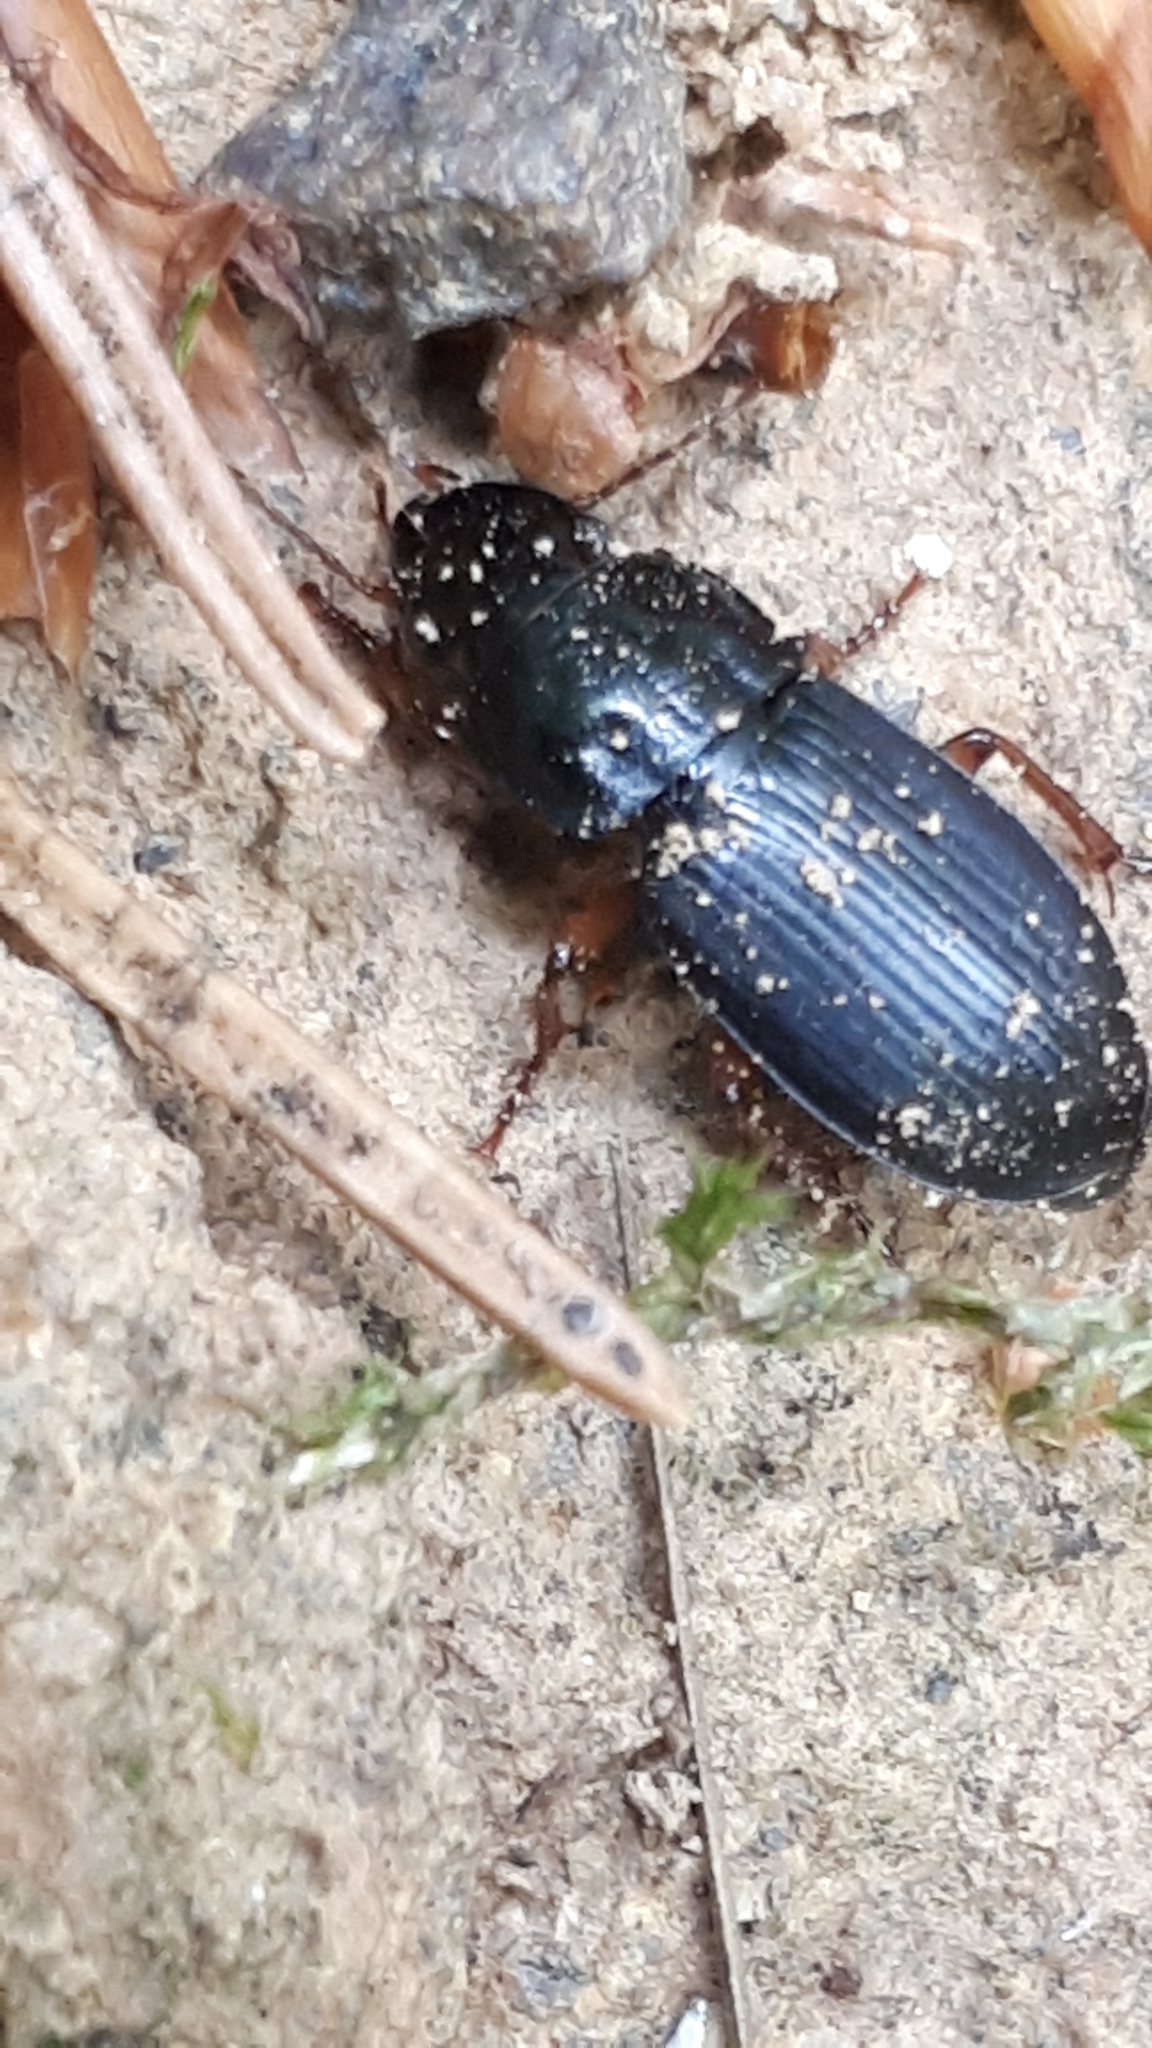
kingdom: Animalia
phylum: Arthropoda
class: Insecta
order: Coleoptera
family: Carabidae
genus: Harpalus
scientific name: Harpalus laevipes
